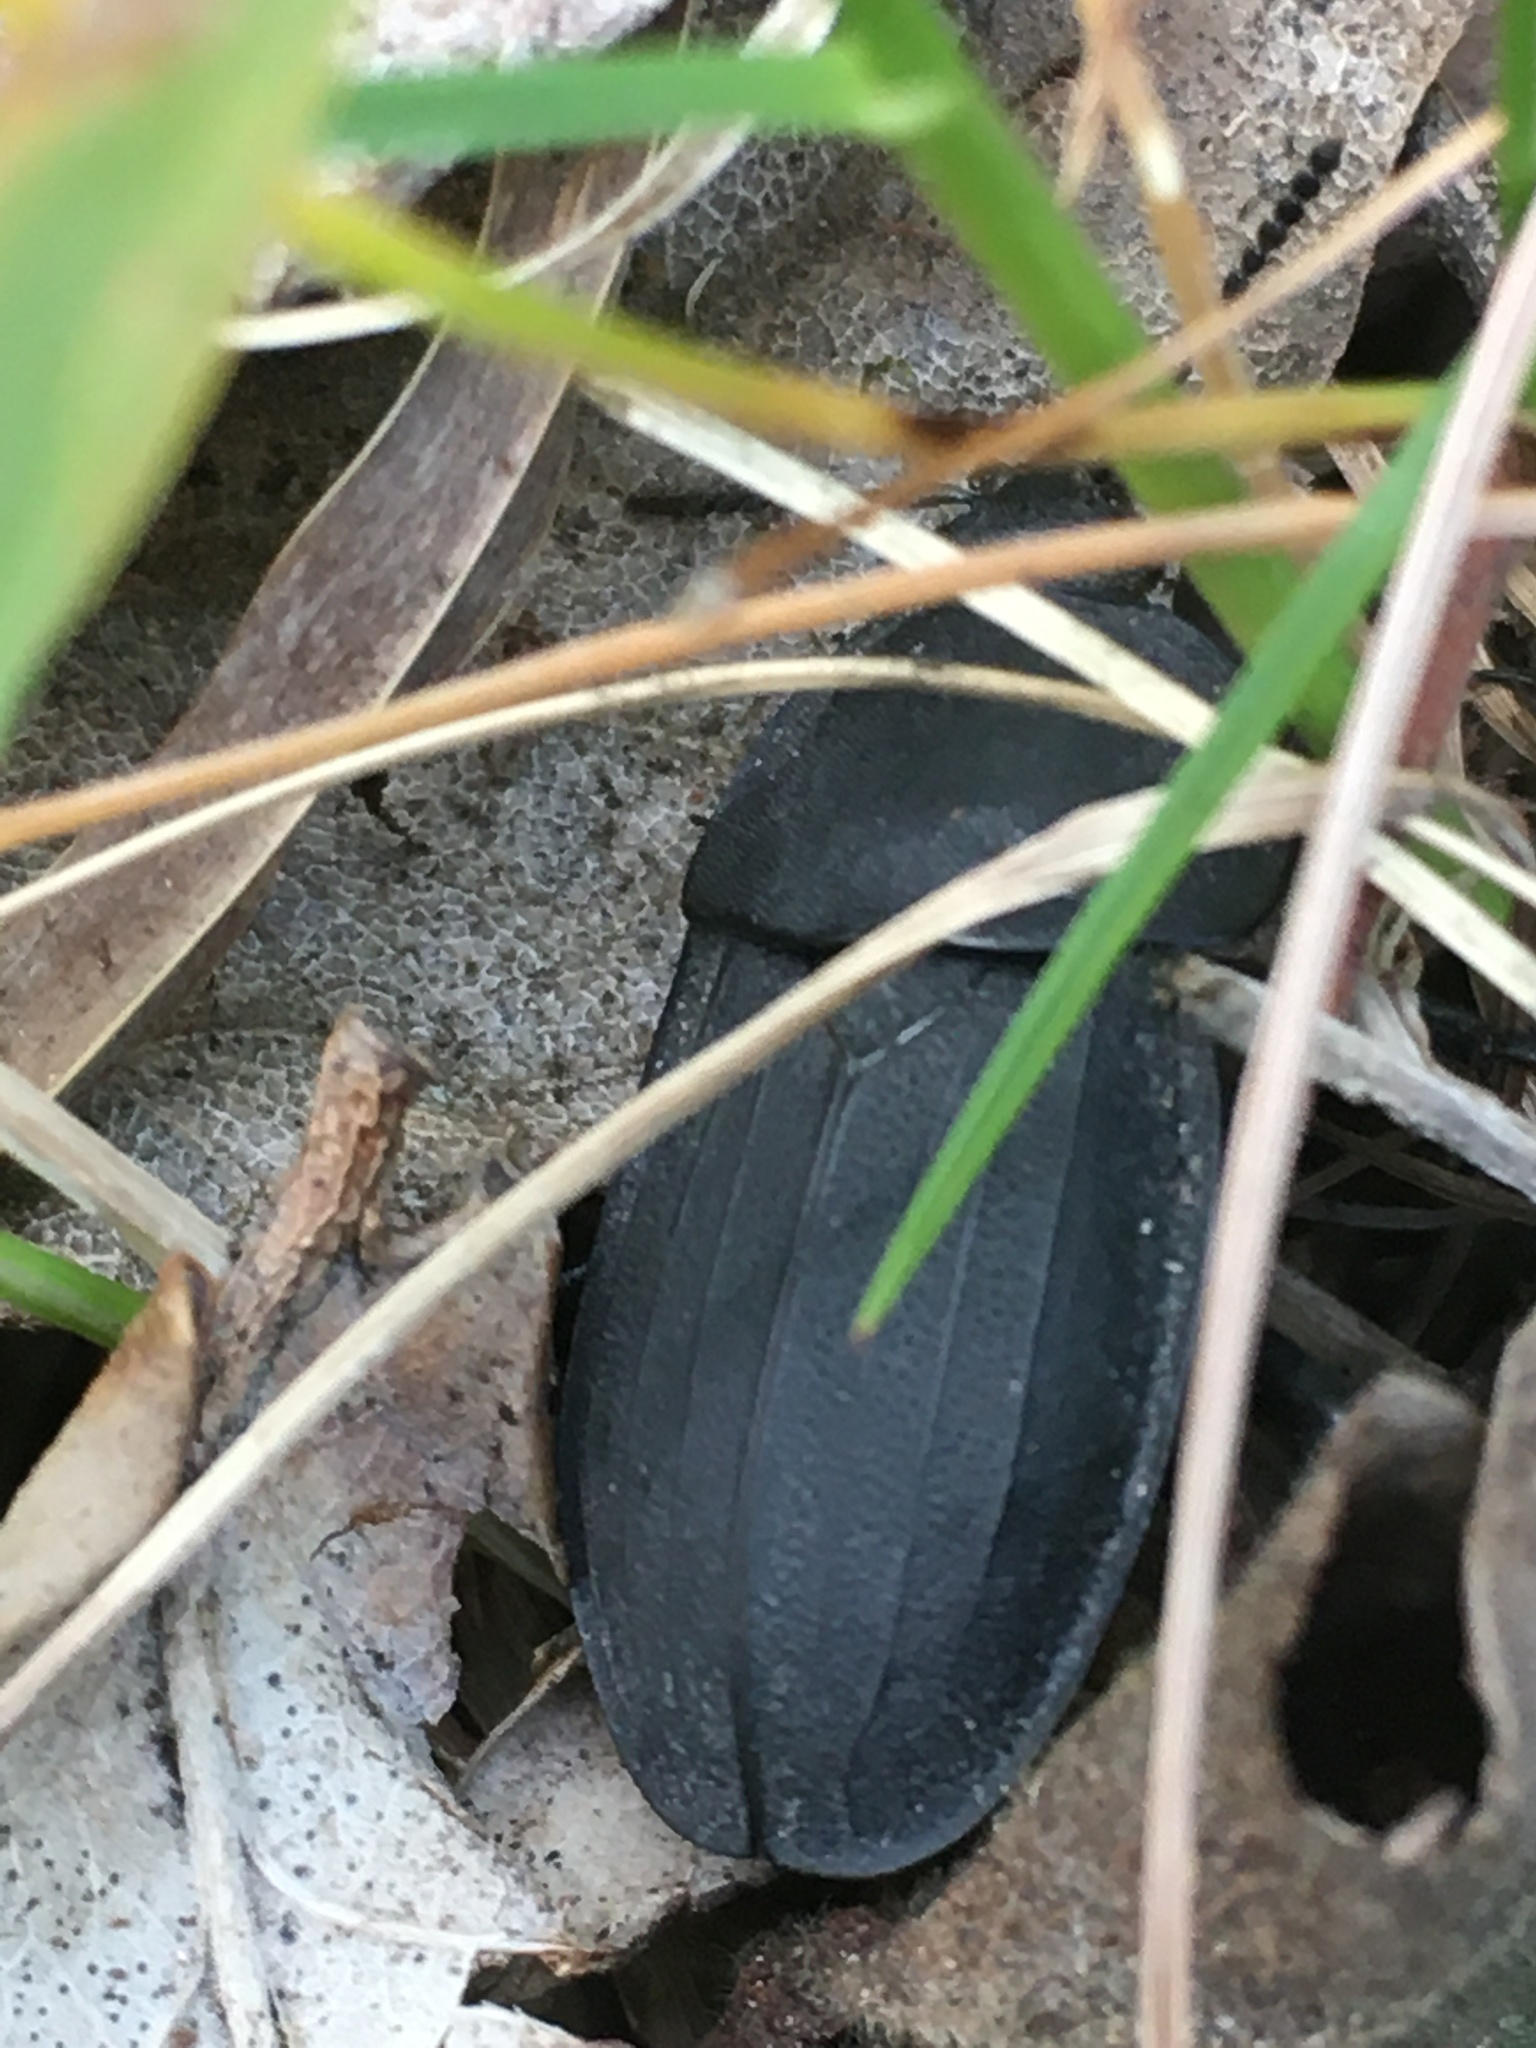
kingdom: Animalia
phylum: Arthropoda
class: Insecta
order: Coleoptera
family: Staphylinidae
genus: Silpha
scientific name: Silpha obscura
